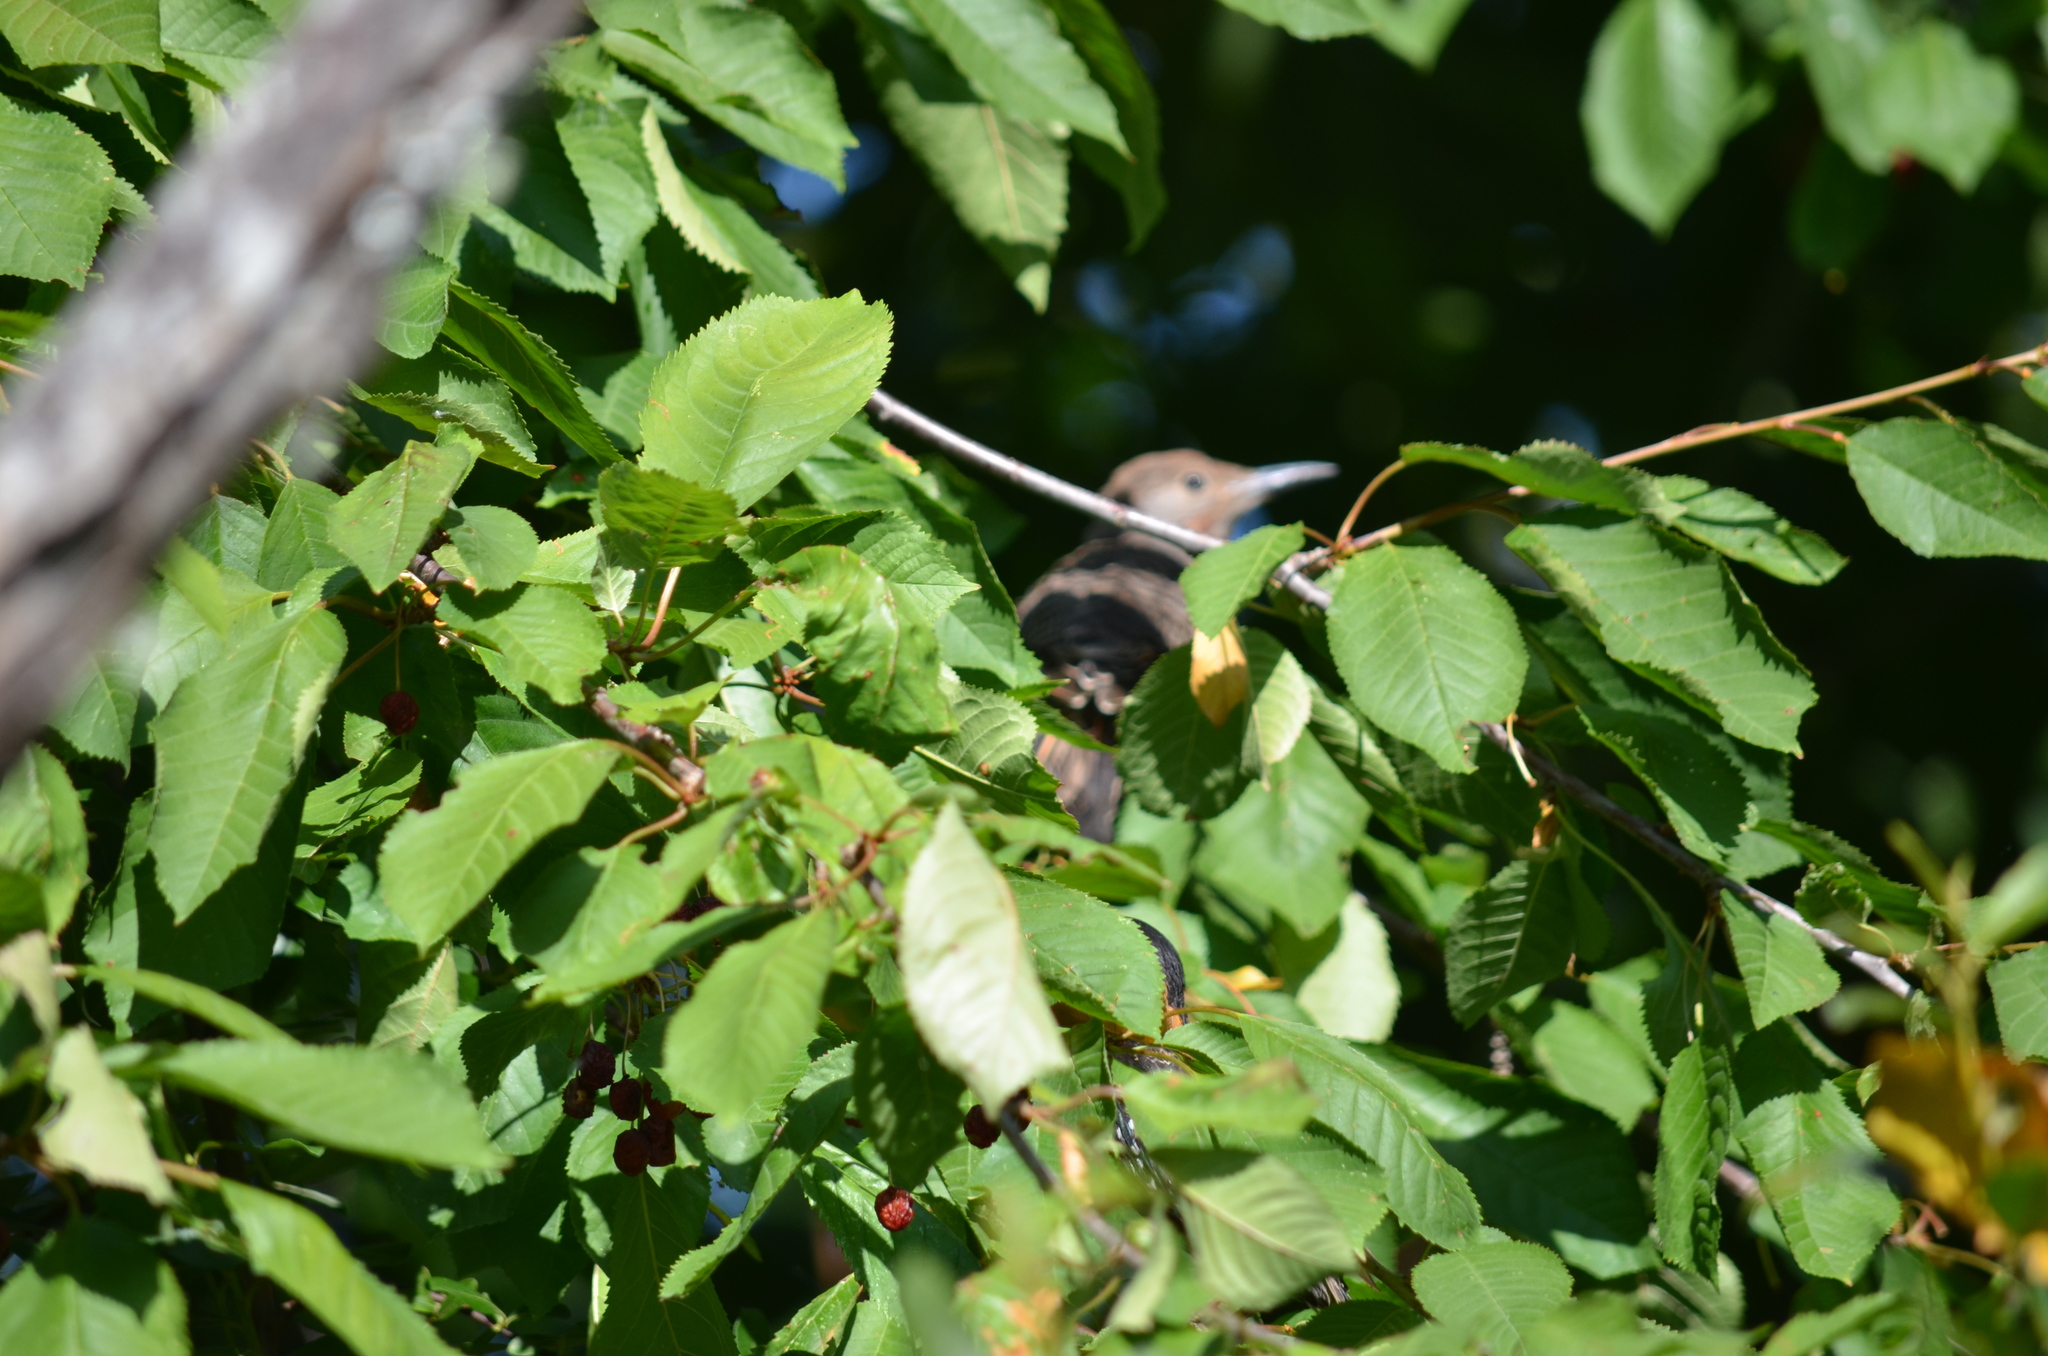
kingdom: Animalia
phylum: Chordata
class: Aves
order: Piciformes
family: Picidae
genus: Colaptes
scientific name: Colaptes auratus
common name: Northern flicker
